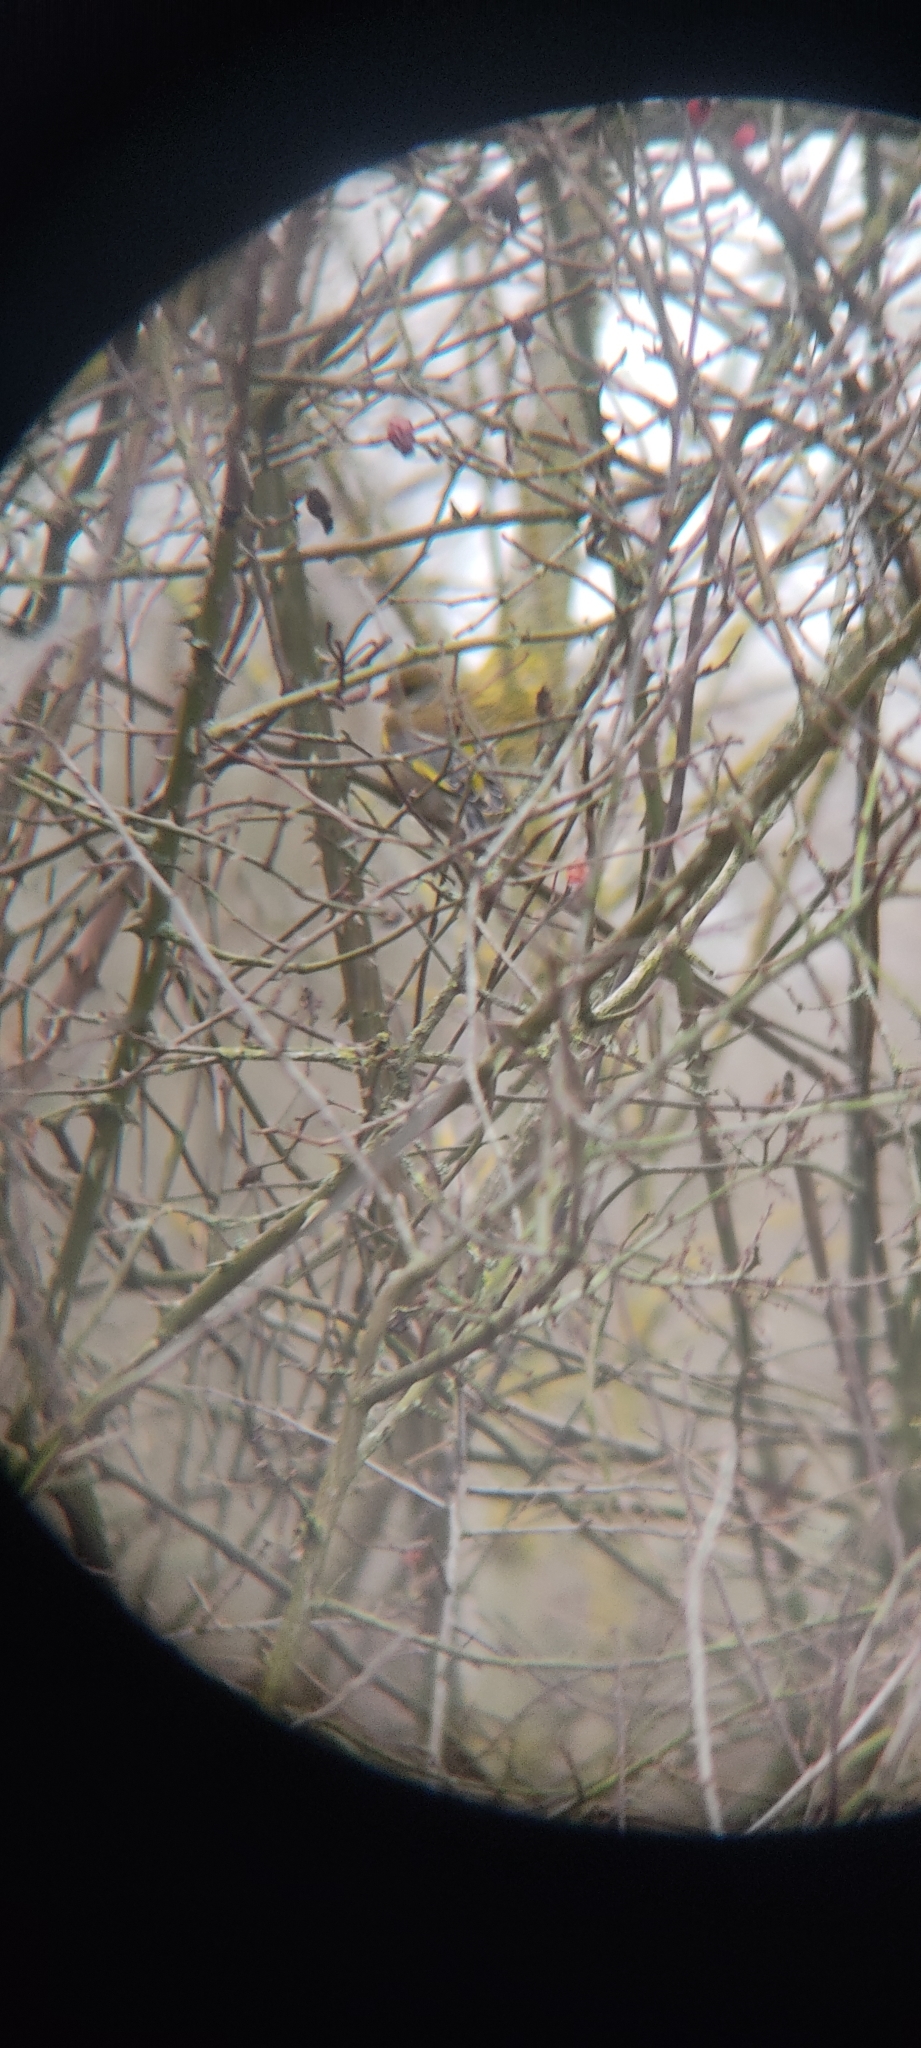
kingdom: Plantae
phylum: Tracheophyta
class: Liliopsida
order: Poales
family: Poaceae
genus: Chloris
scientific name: Chloris chloris
